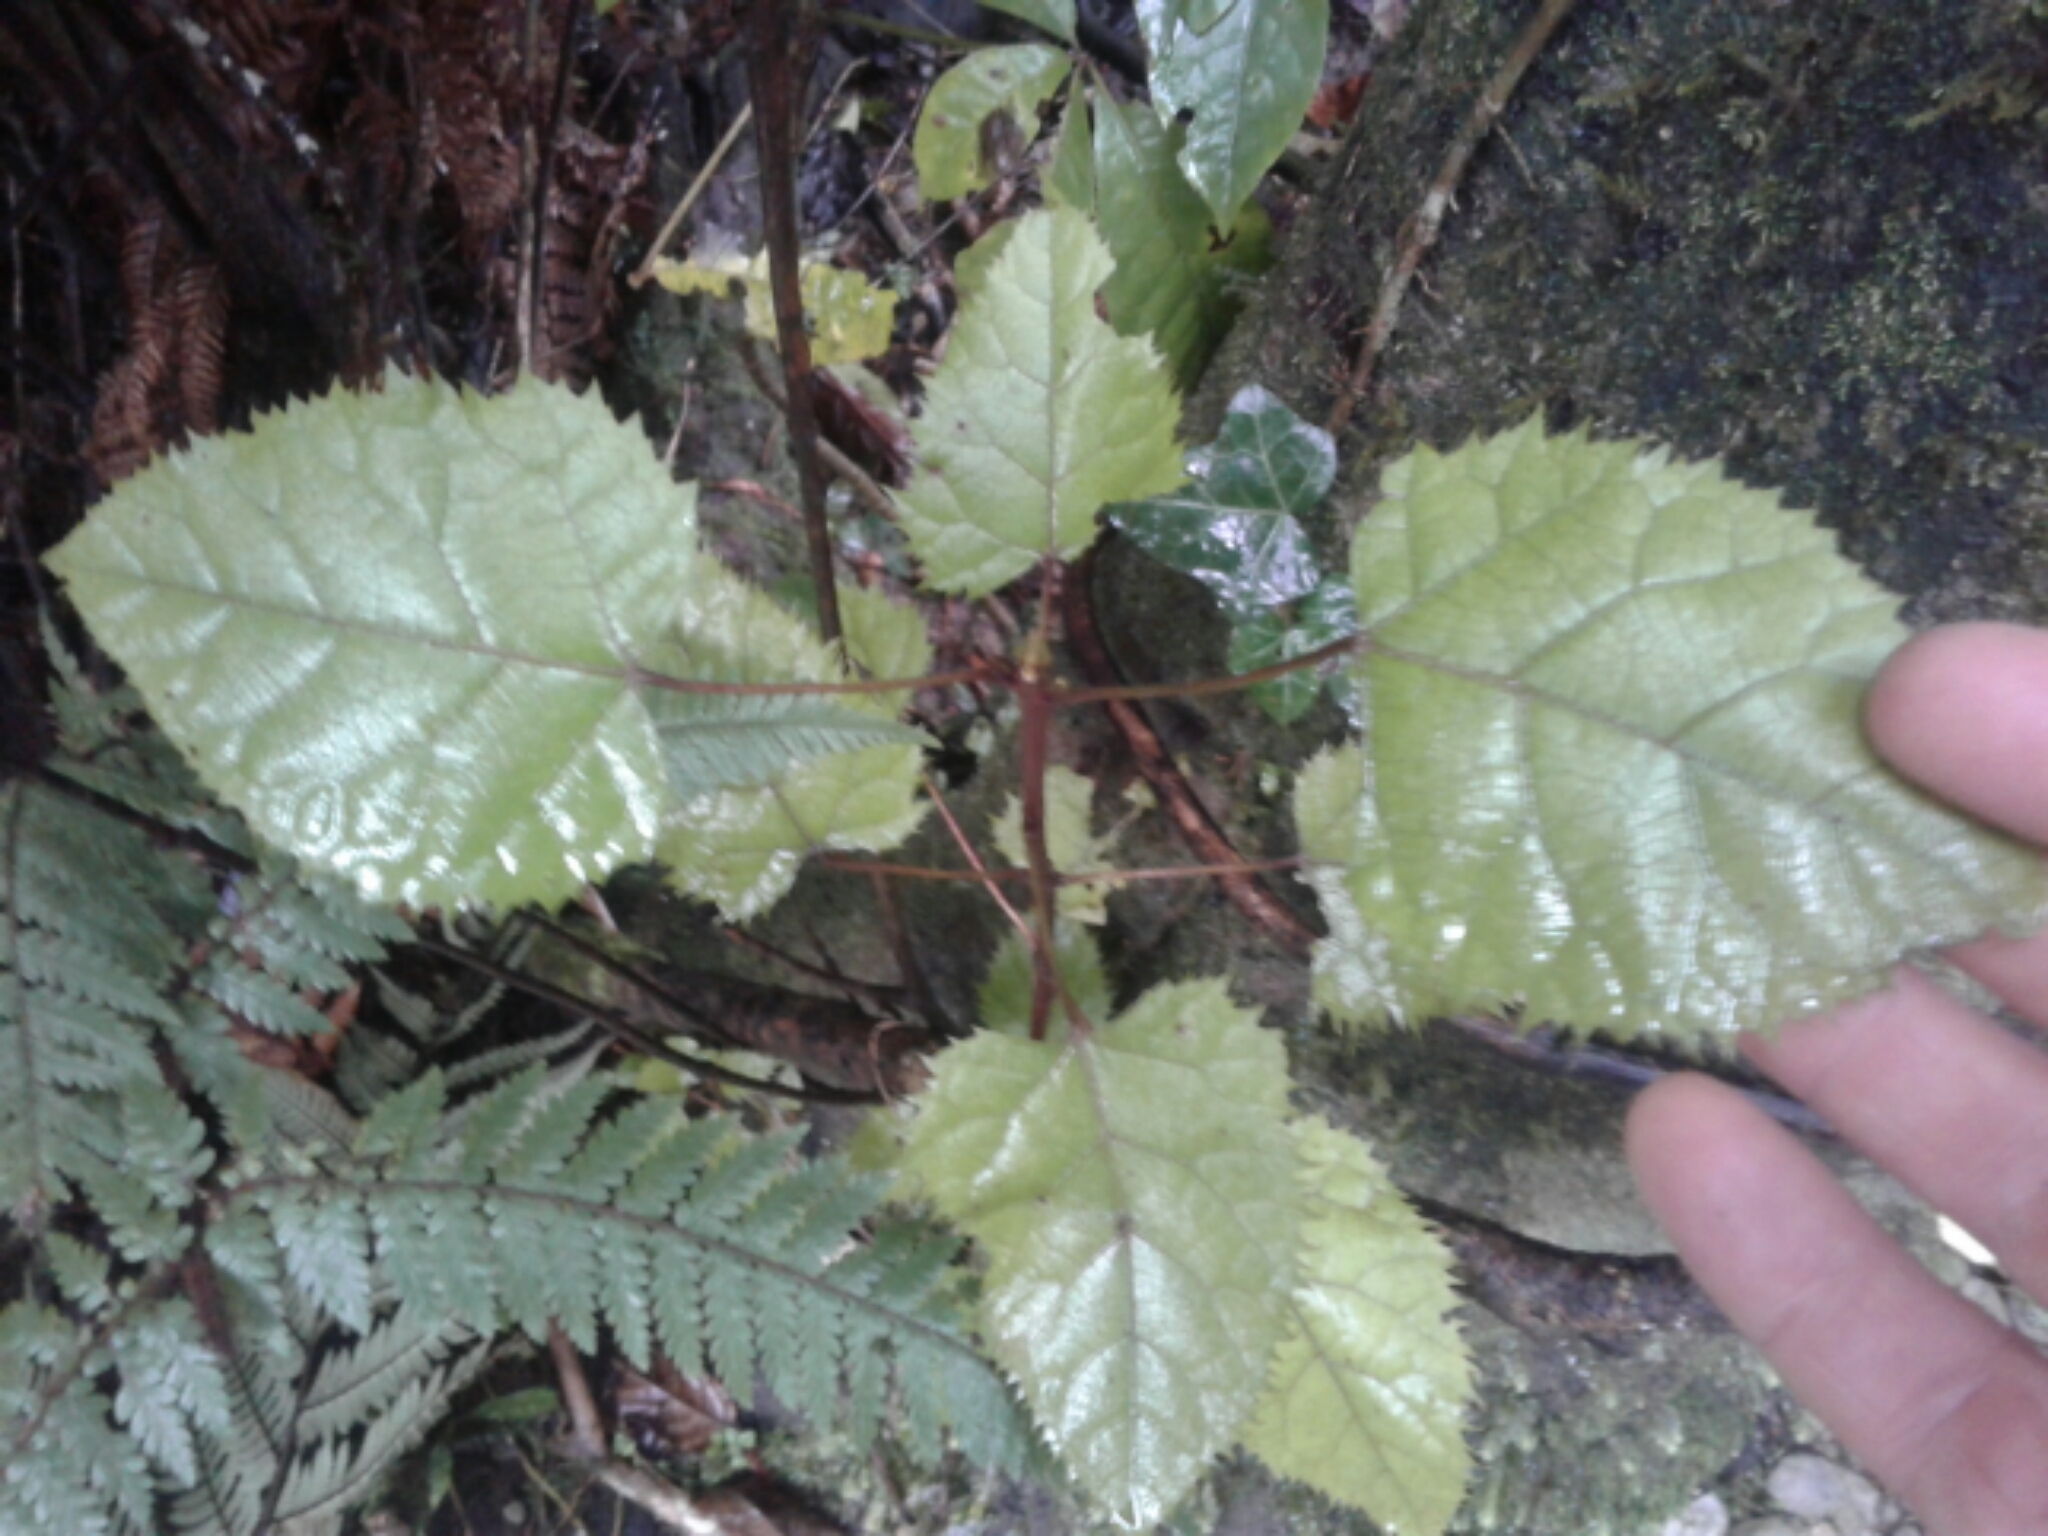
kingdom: Plantae
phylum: Tracheophyta
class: Magnoliopsida
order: Oxalidales
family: Elaeocarpaceae
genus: Aristotelia
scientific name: Aristotelia serrata
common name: New zealand wineberry
